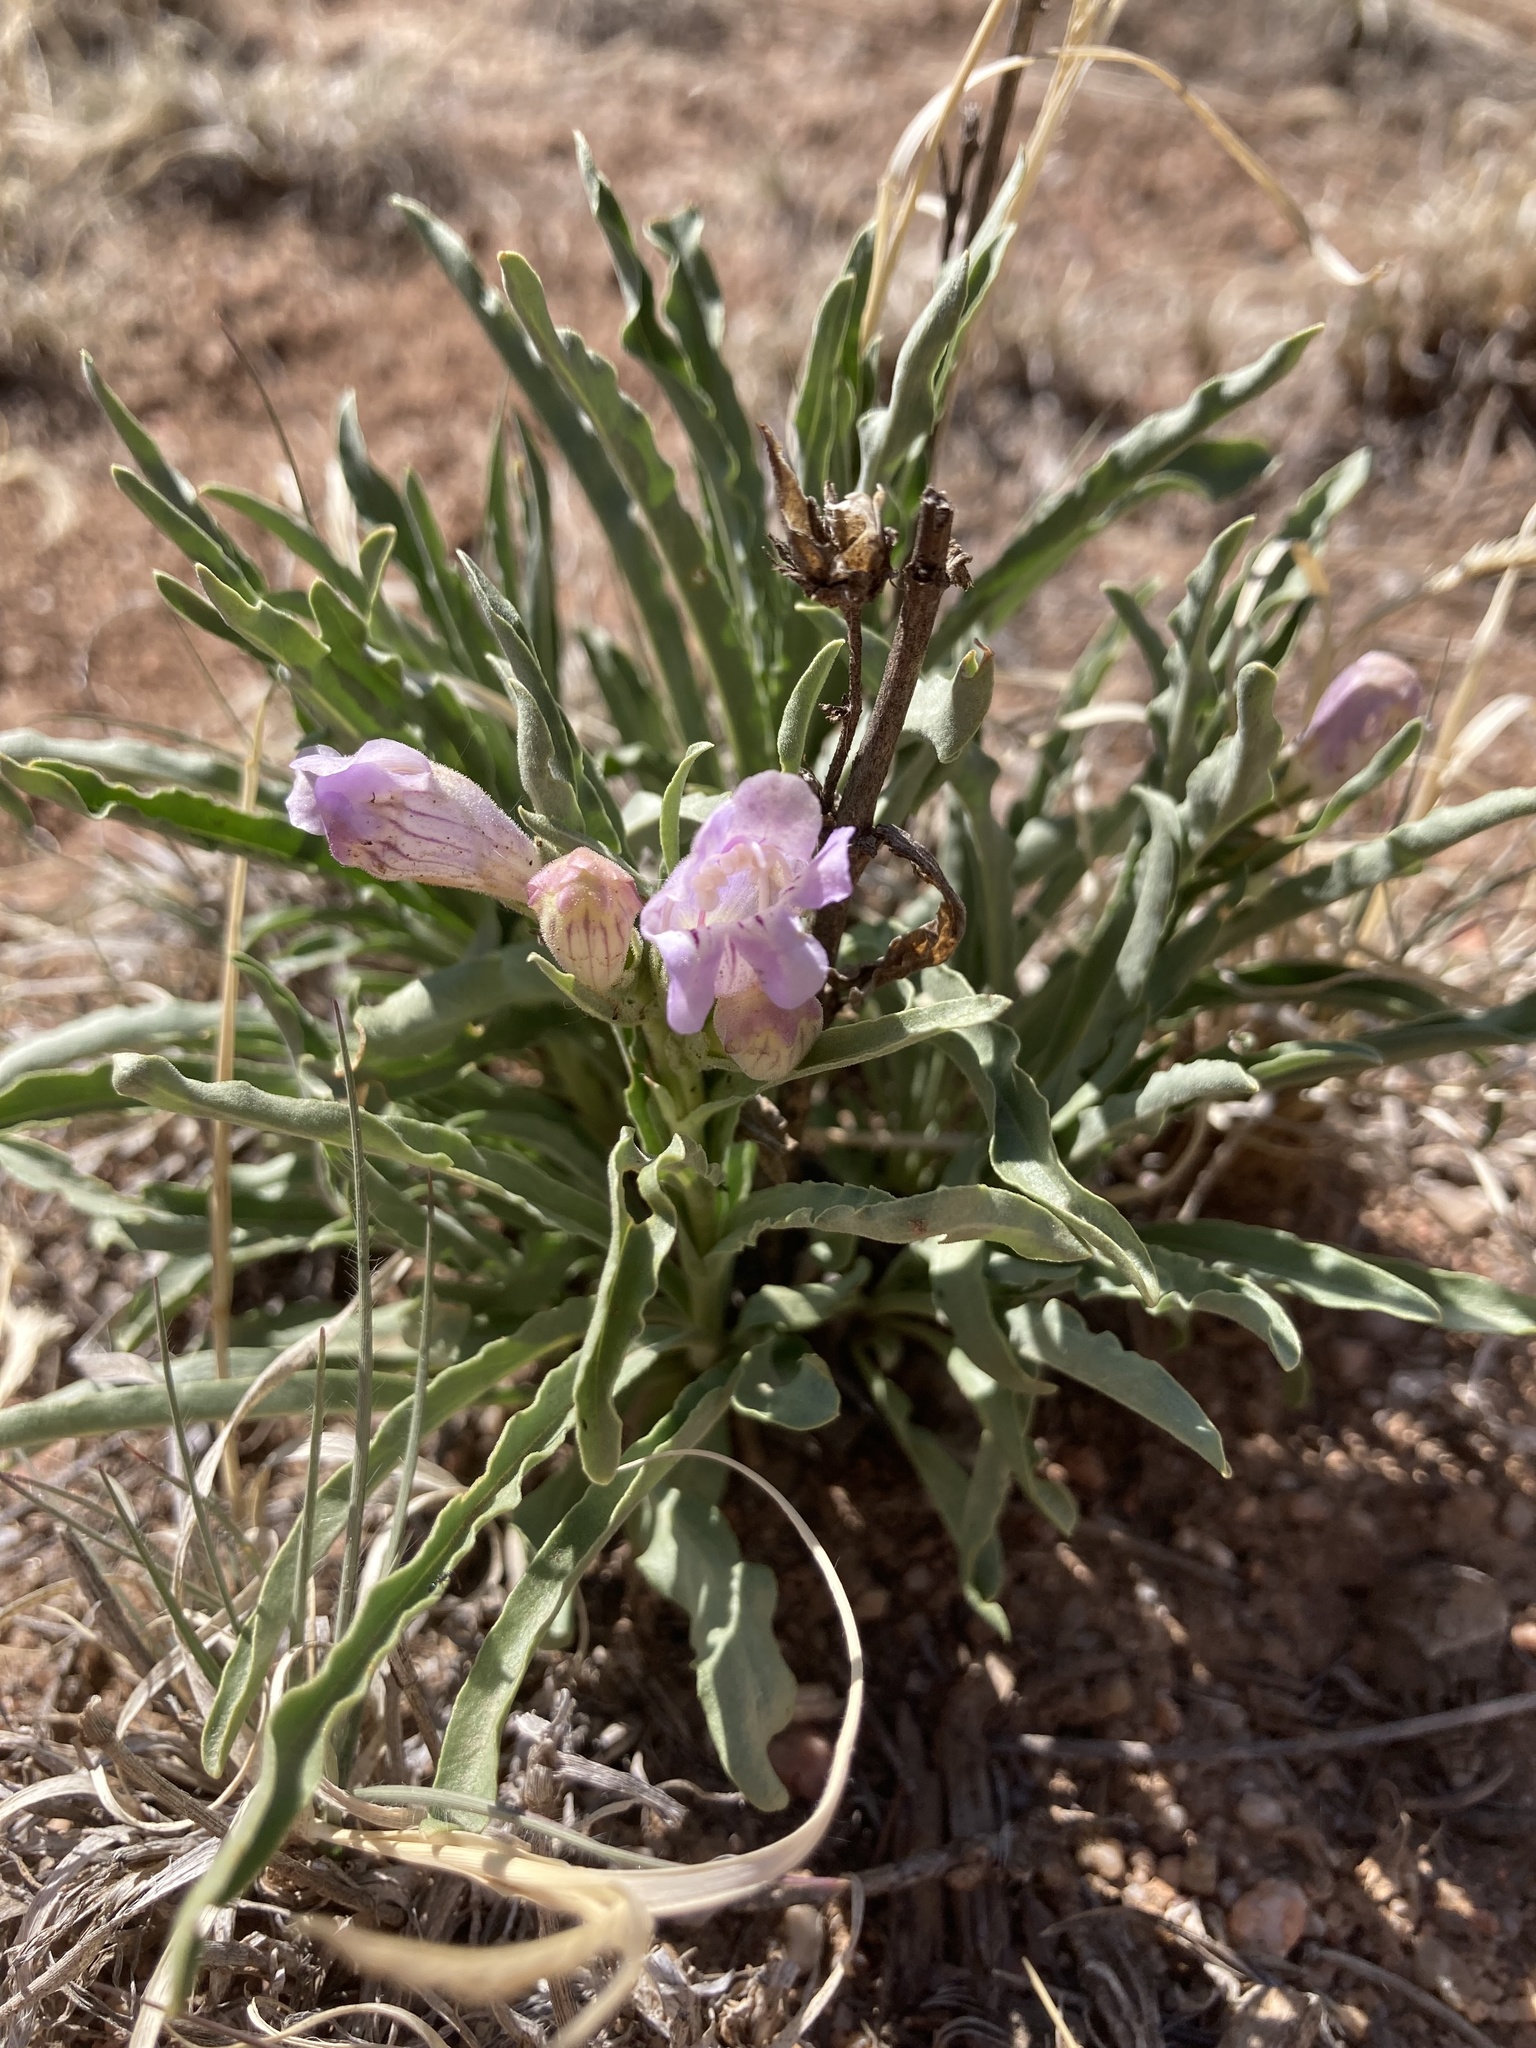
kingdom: Plantae
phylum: Tracheophyta
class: Magnoliopsida
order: Lamiales
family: Plantaginaceae
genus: Penstemon
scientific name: Penstemon jamesii
